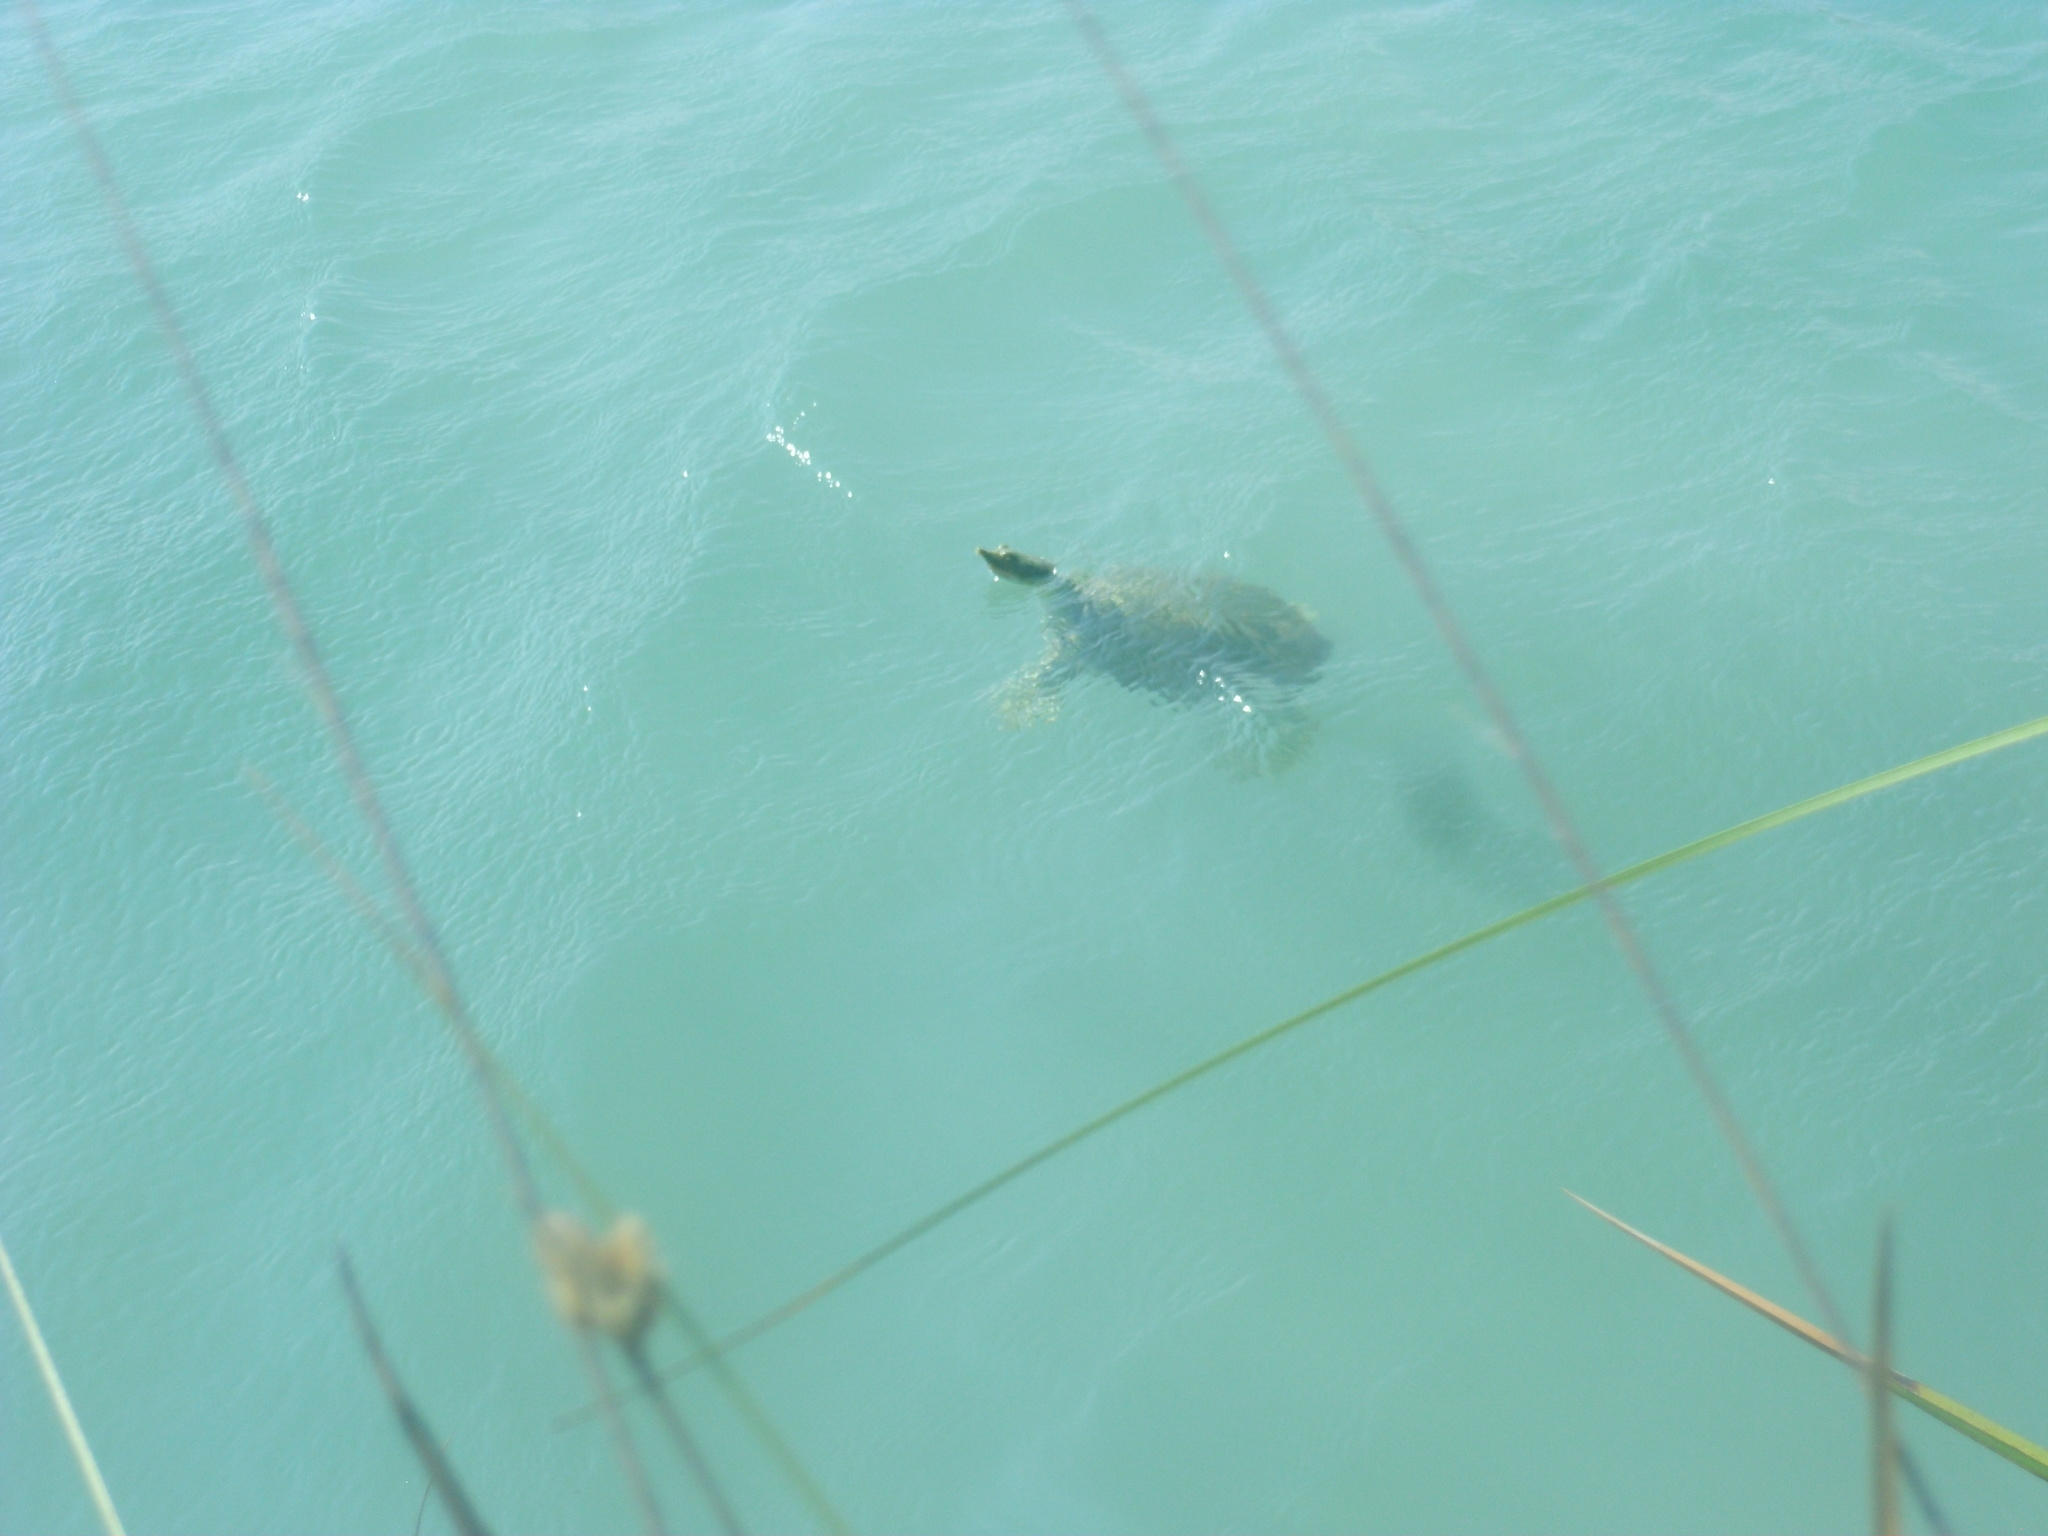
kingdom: Animalia
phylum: Chordata
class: Testudines
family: Trionychidae
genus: Apalone
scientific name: Apalone spinifera
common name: Spiny softshell turtle
